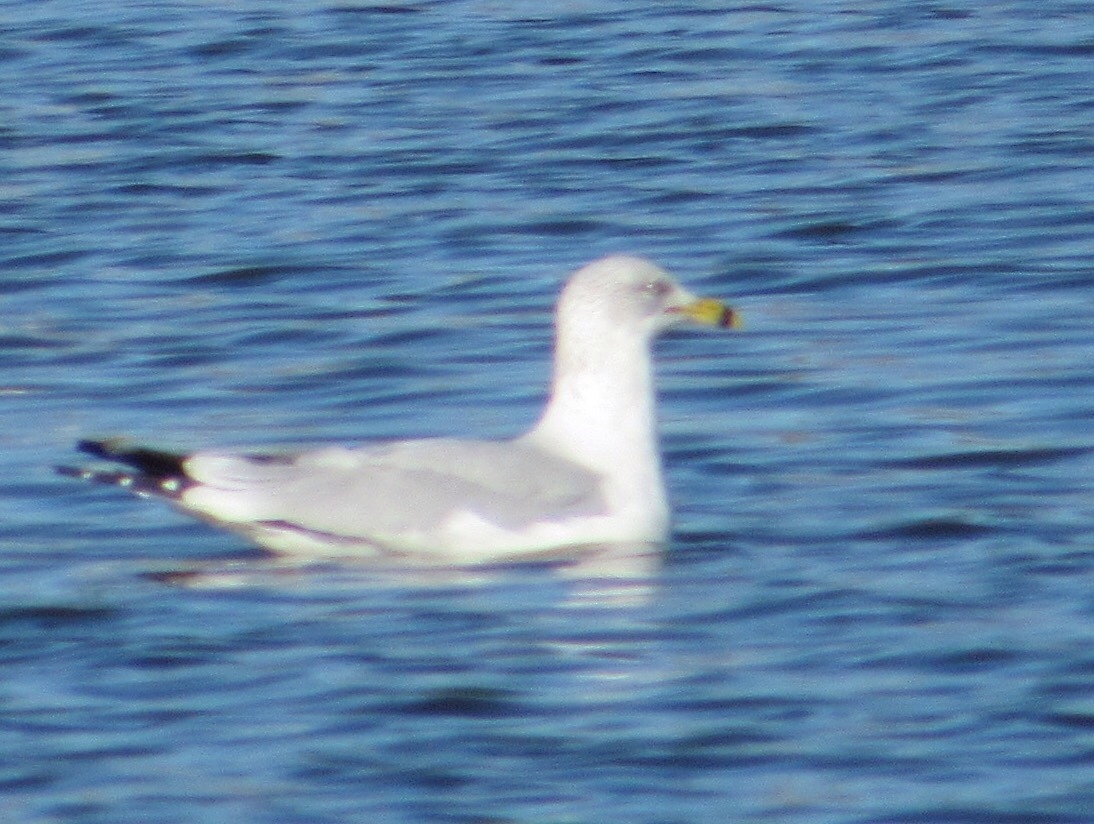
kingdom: Animalia
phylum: Chordata
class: Aves
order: Charadriiformes
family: Laridae
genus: Larus
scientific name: Larus delawarensis
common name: Ring-billed gull
